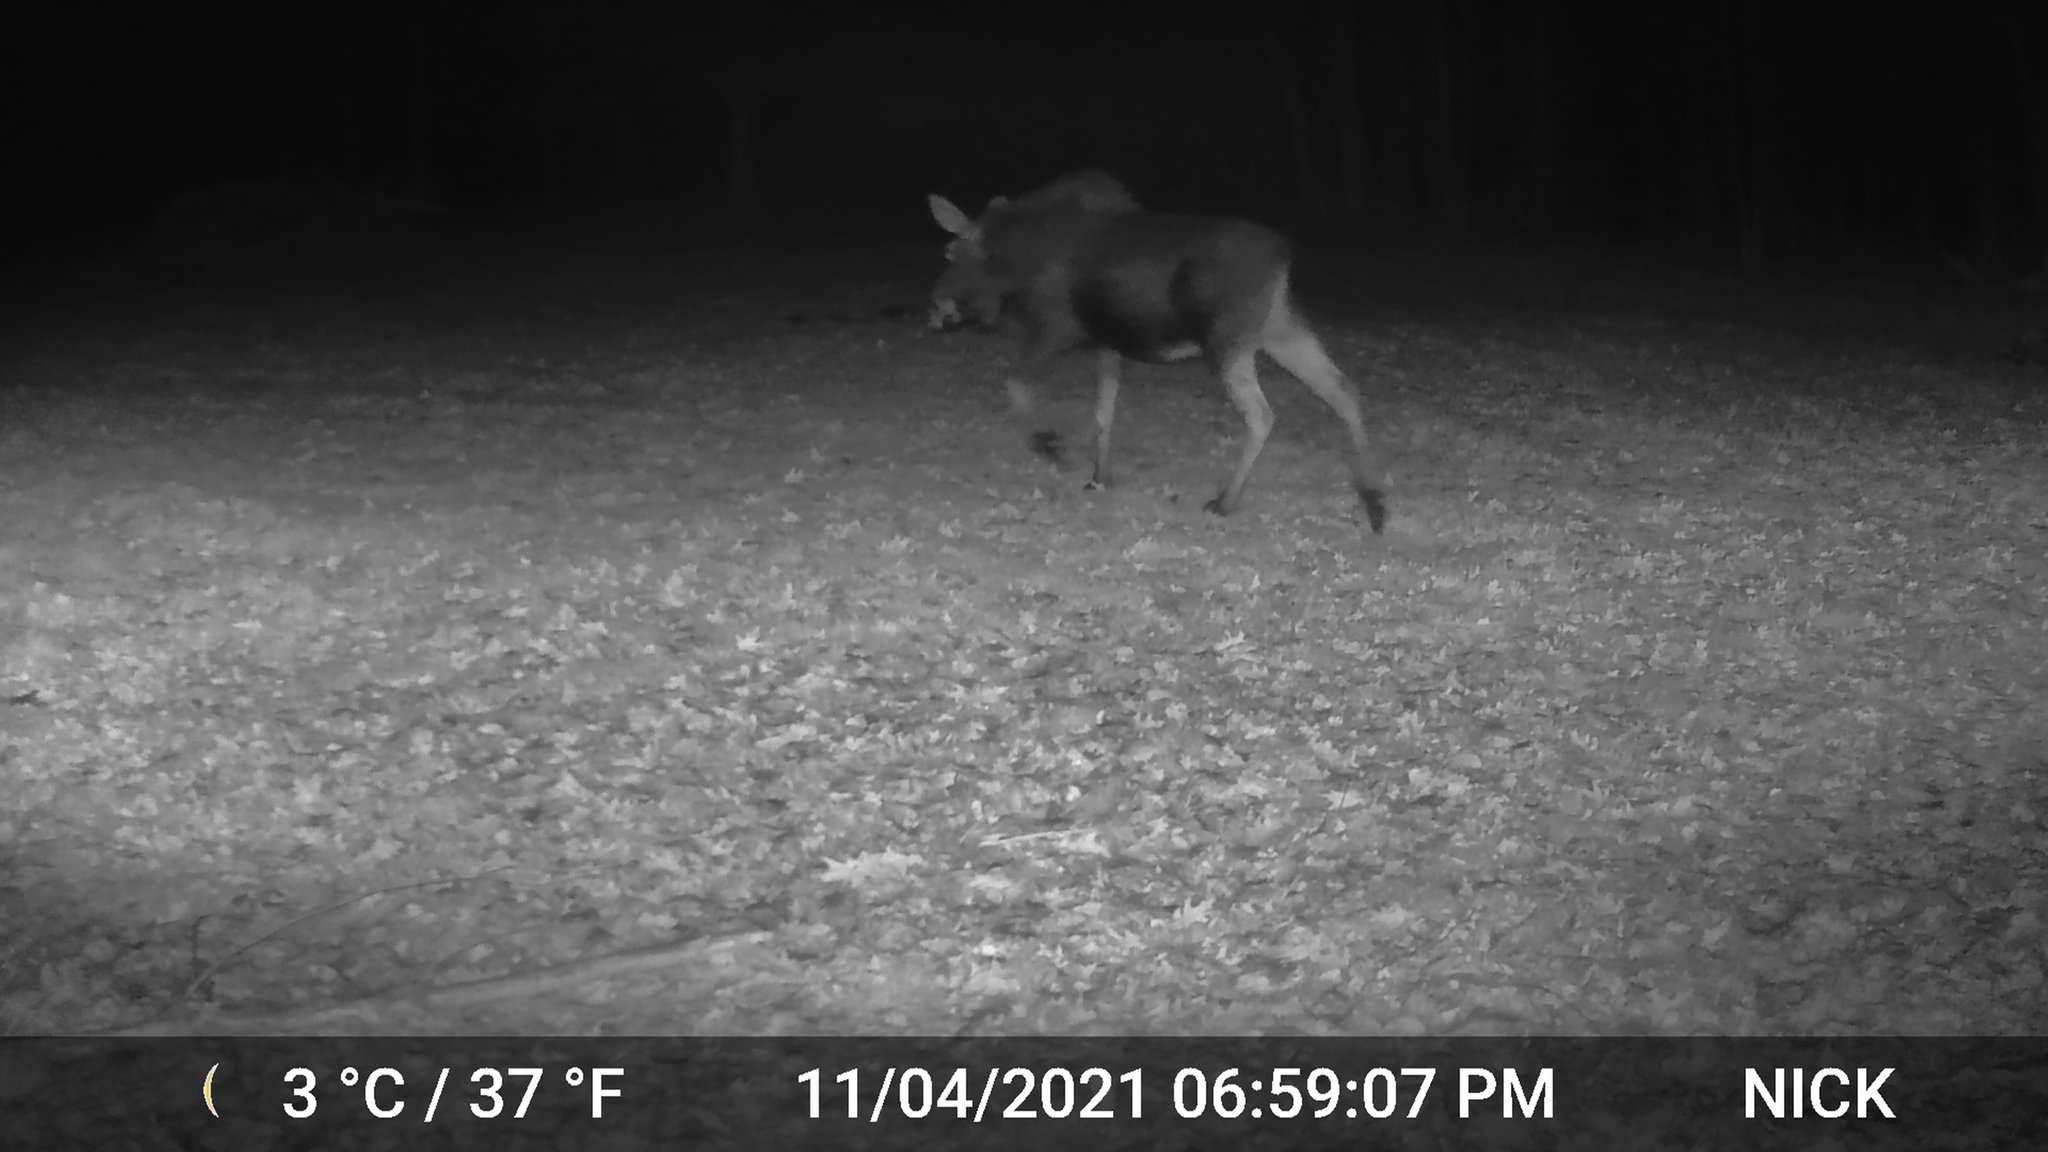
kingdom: Animalia
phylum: Chordata
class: Mammalia
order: Artiodactyla
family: Cervidae
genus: Alces
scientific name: Alces alces
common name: Moose
